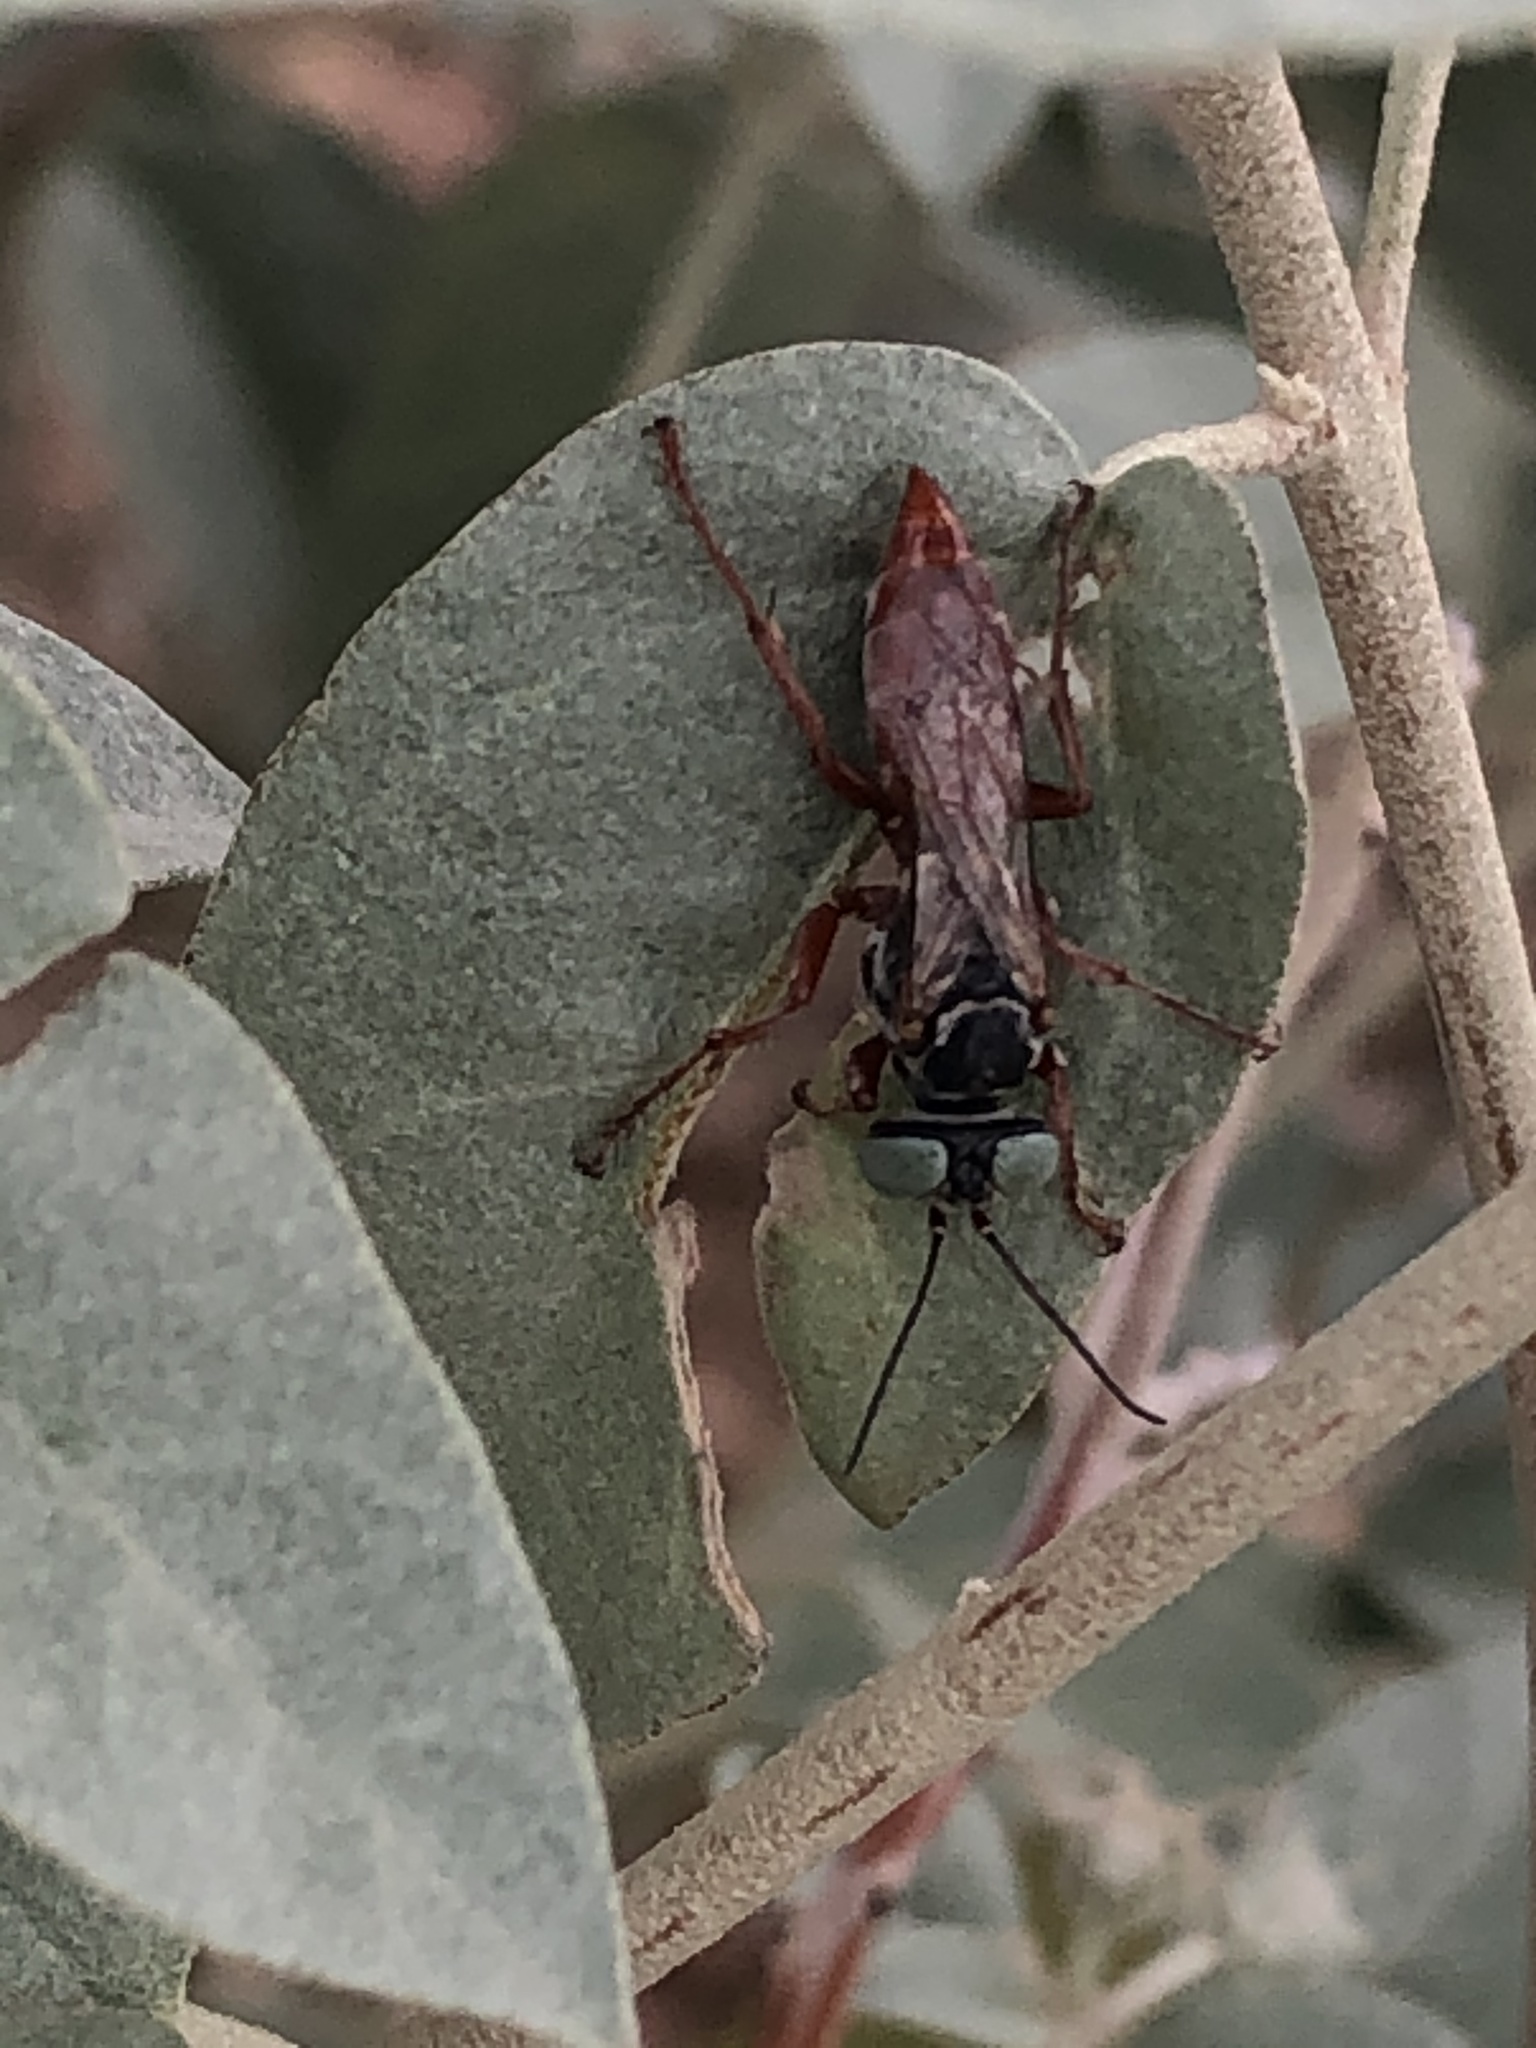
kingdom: Animalia
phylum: Arthropoda
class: Insecta
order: Hymenoptera
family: Crabronidae
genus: Tachysphex
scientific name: Tachysphex
